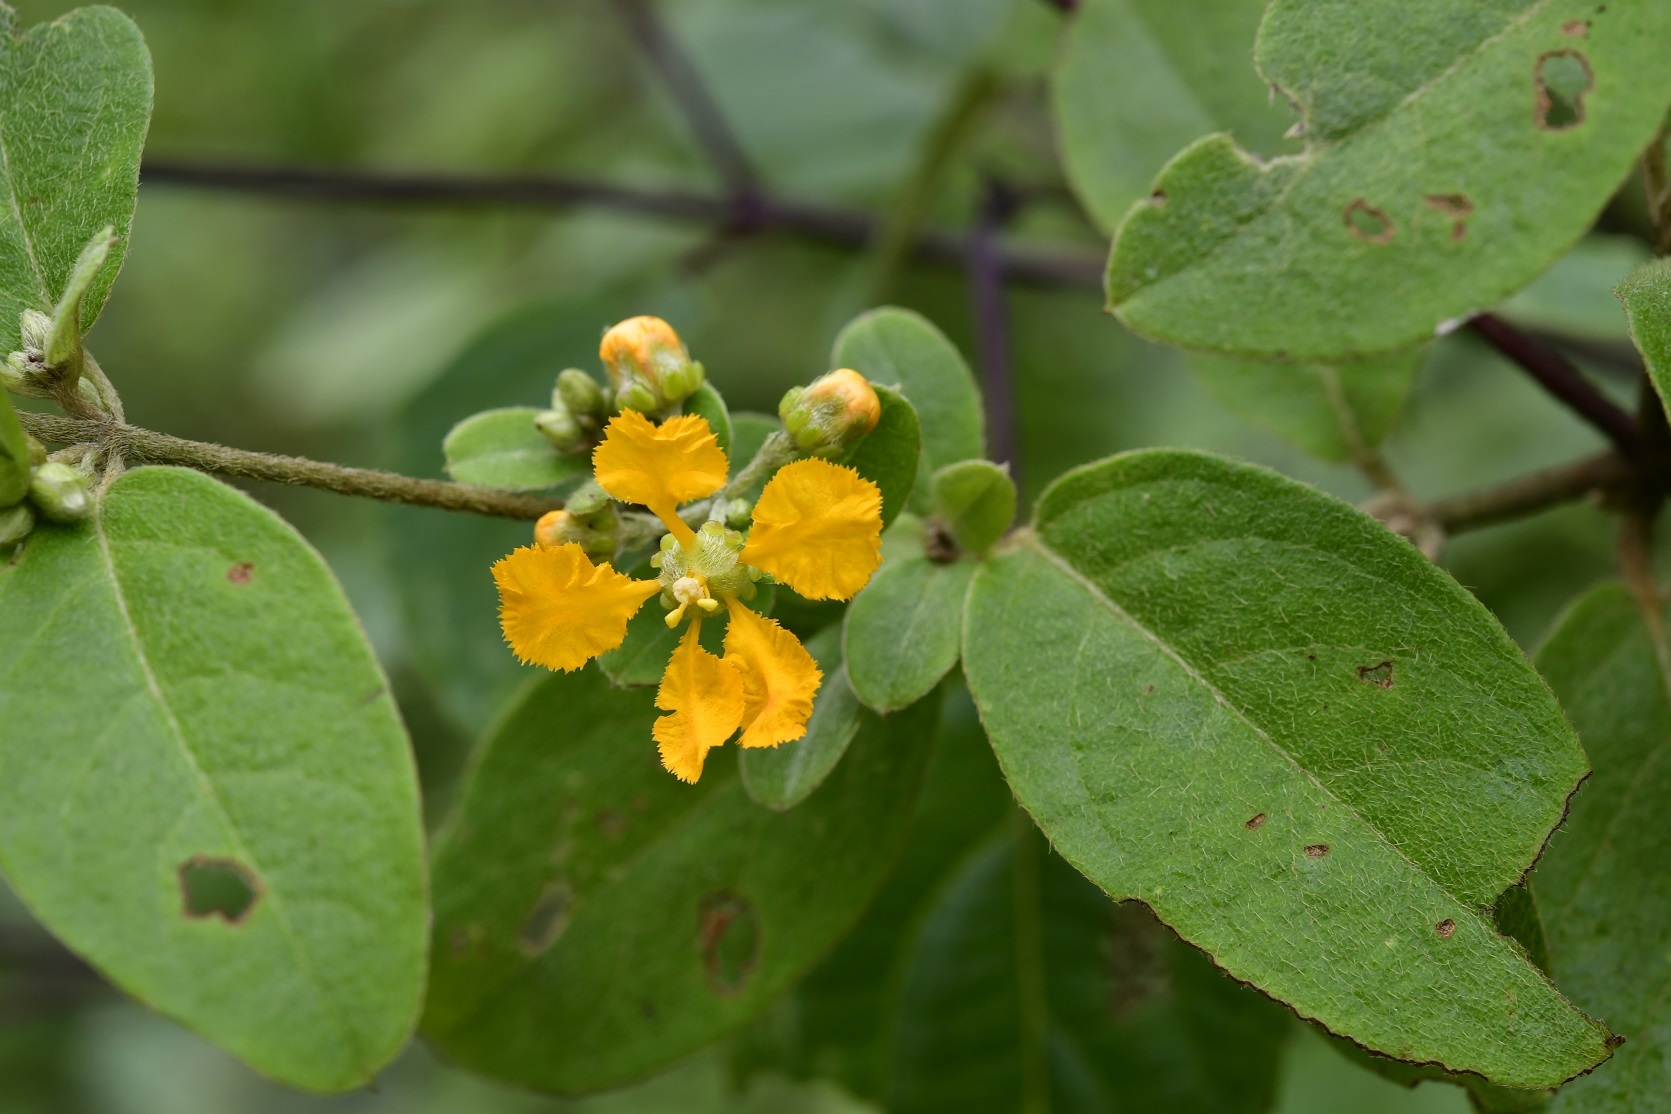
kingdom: Plantae
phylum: Tracheophyta
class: Magnoliopsida
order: Malpighiales
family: Malpighiaceae
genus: Gaudichaudia
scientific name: Gaudichaudia cynanchoides
